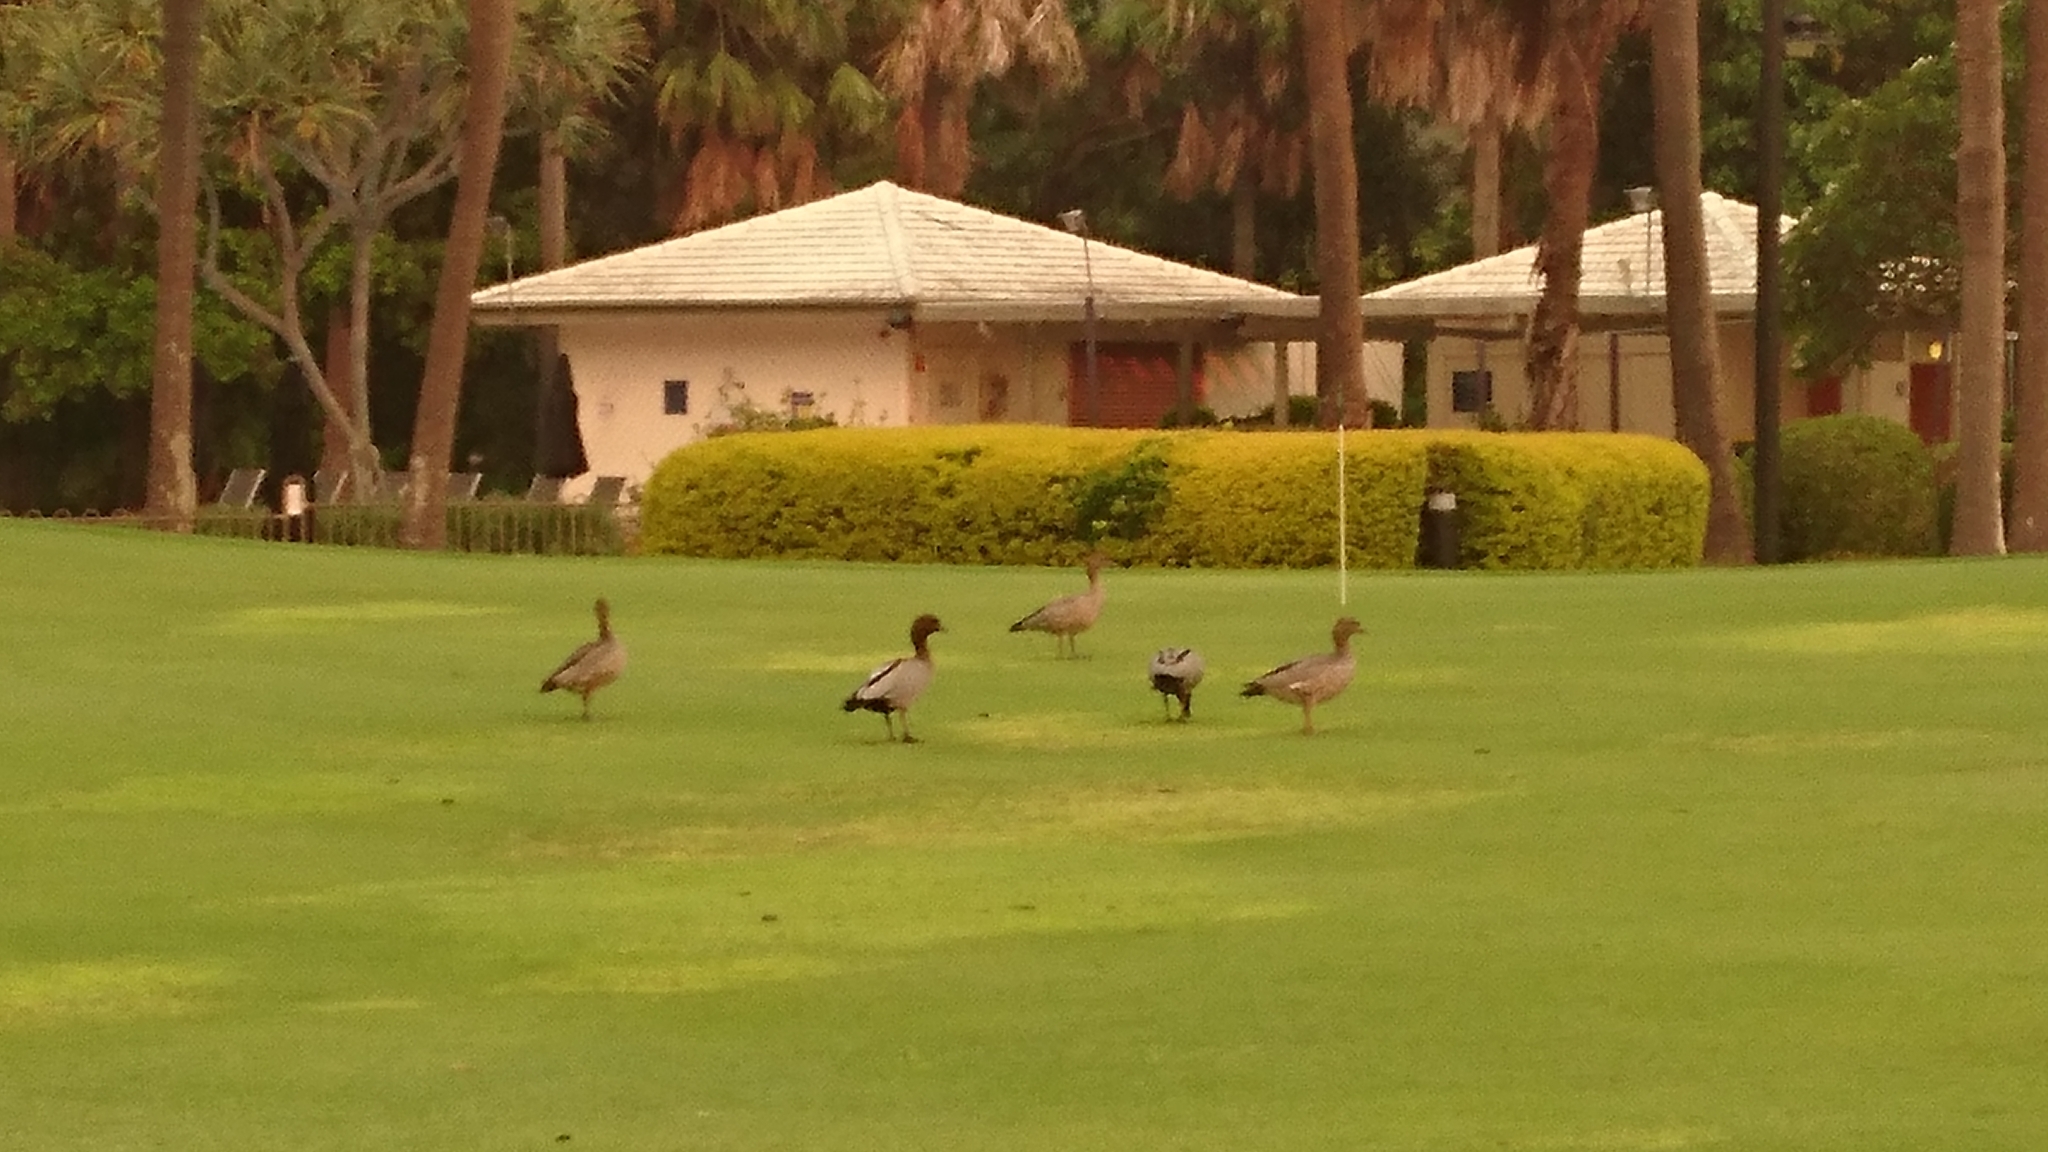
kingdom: Animalia
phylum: Chordata
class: Aves
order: Anseriformes
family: Anatidae
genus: Chenonetta
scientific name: Chenonetta jubata
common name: Maned duck
